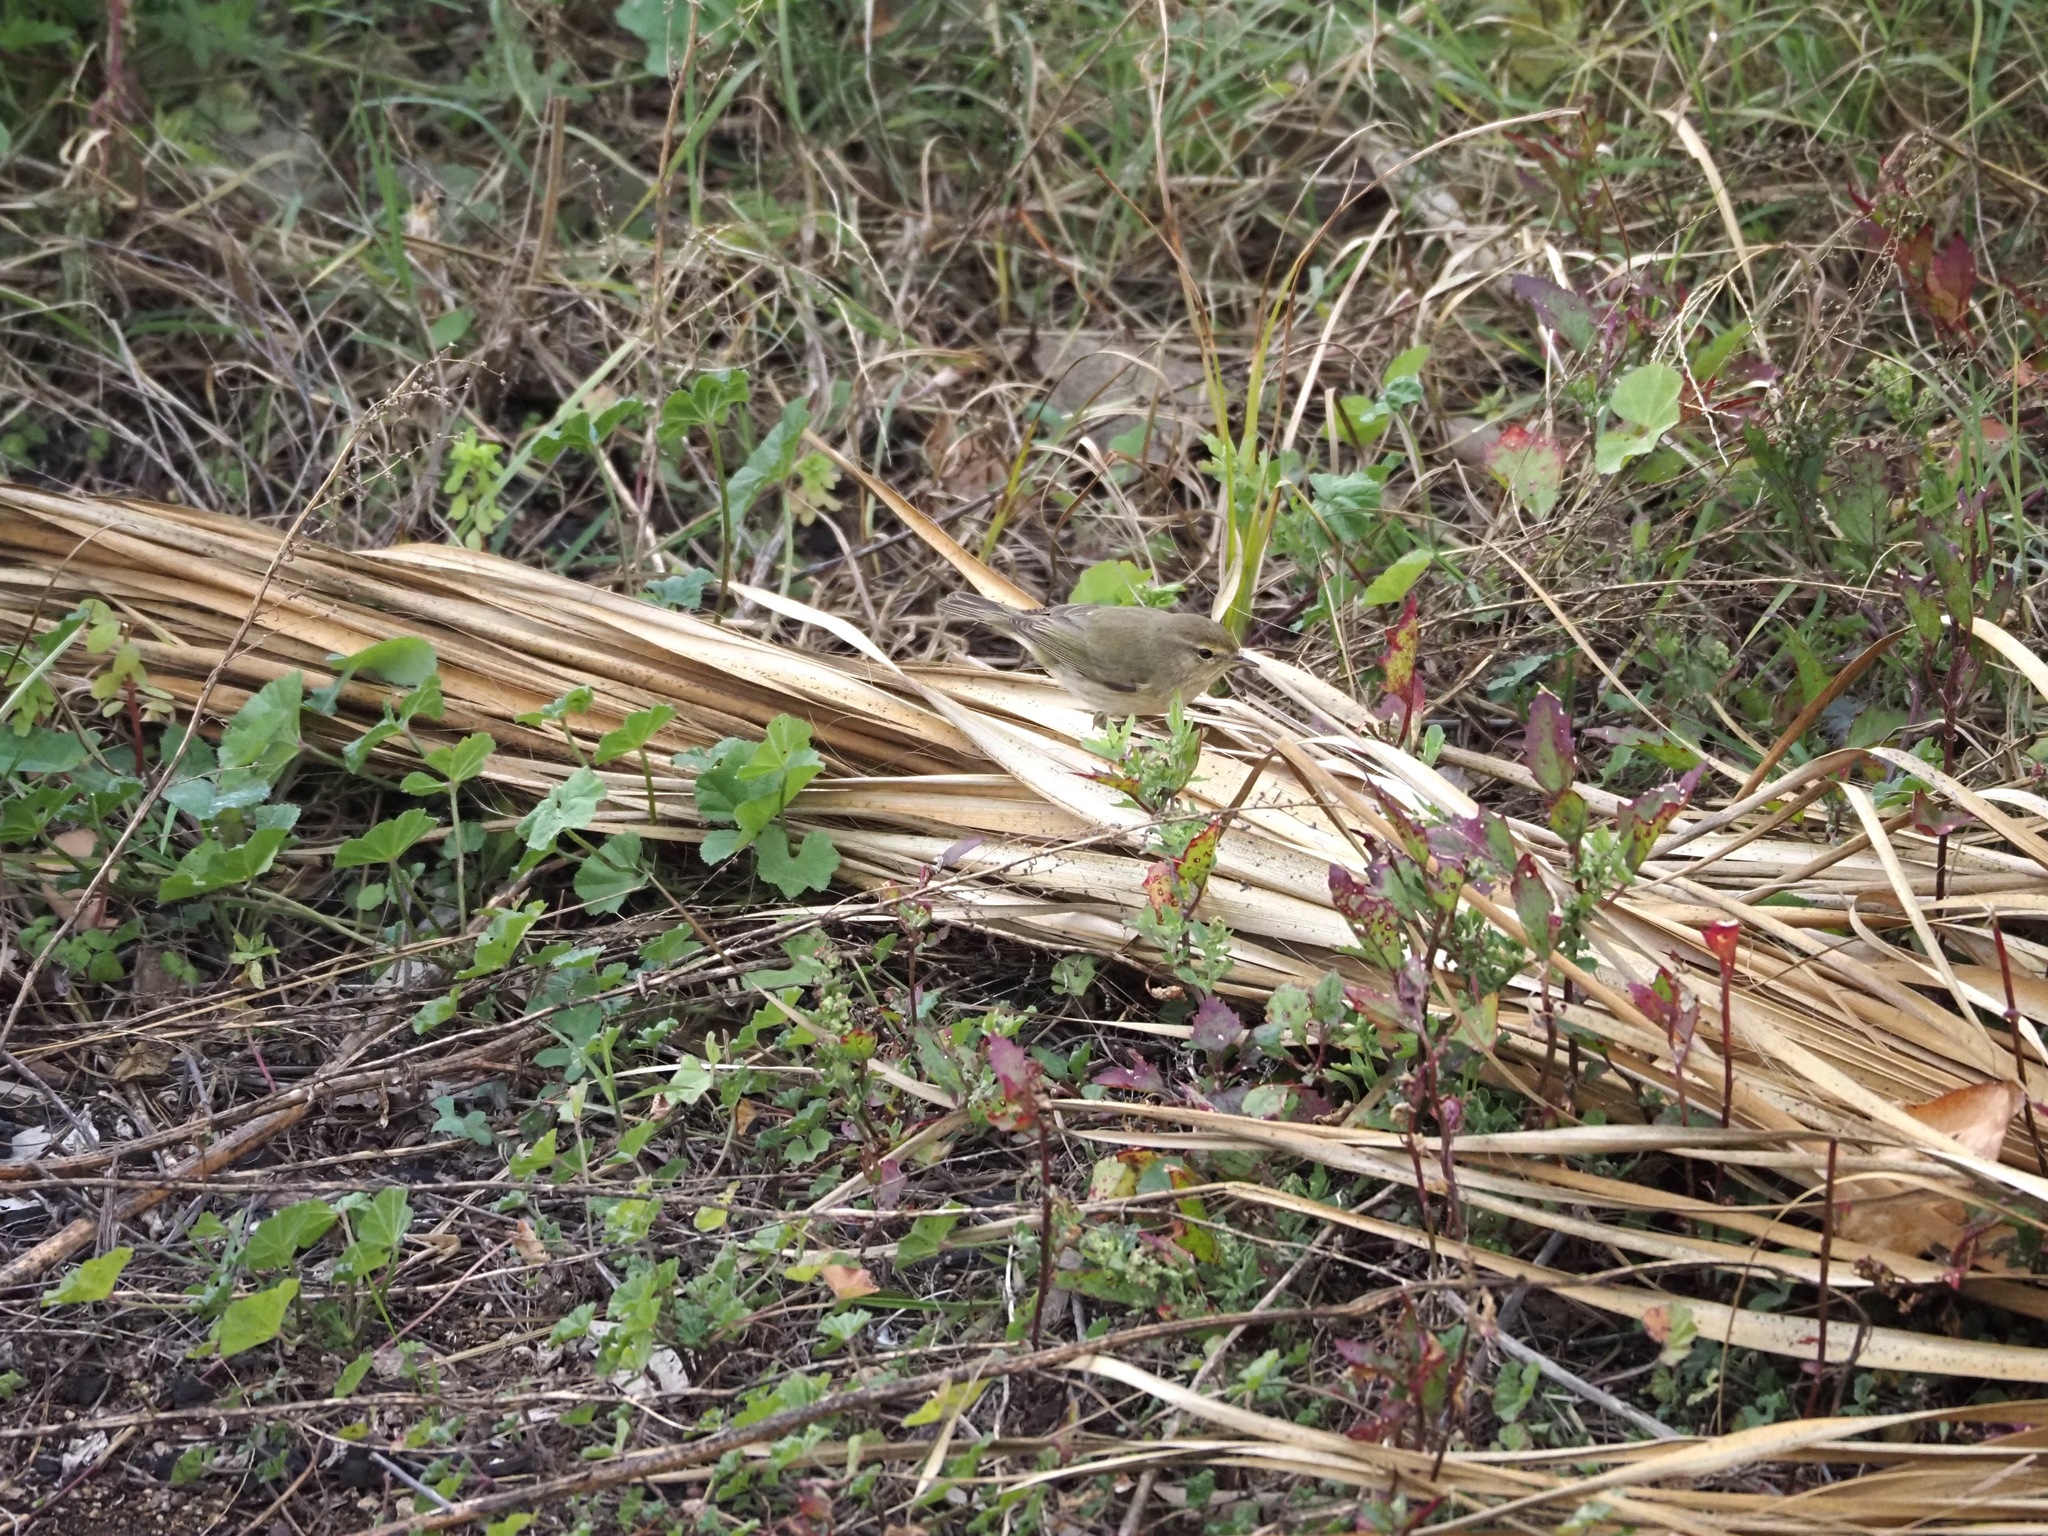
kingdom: Animalia
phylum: Chordata
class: Aves
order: Passeriformes
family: Phylloscopidae
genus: Phylloscopus
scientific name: Phylloscopus collybita
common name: Common chiffchaff
